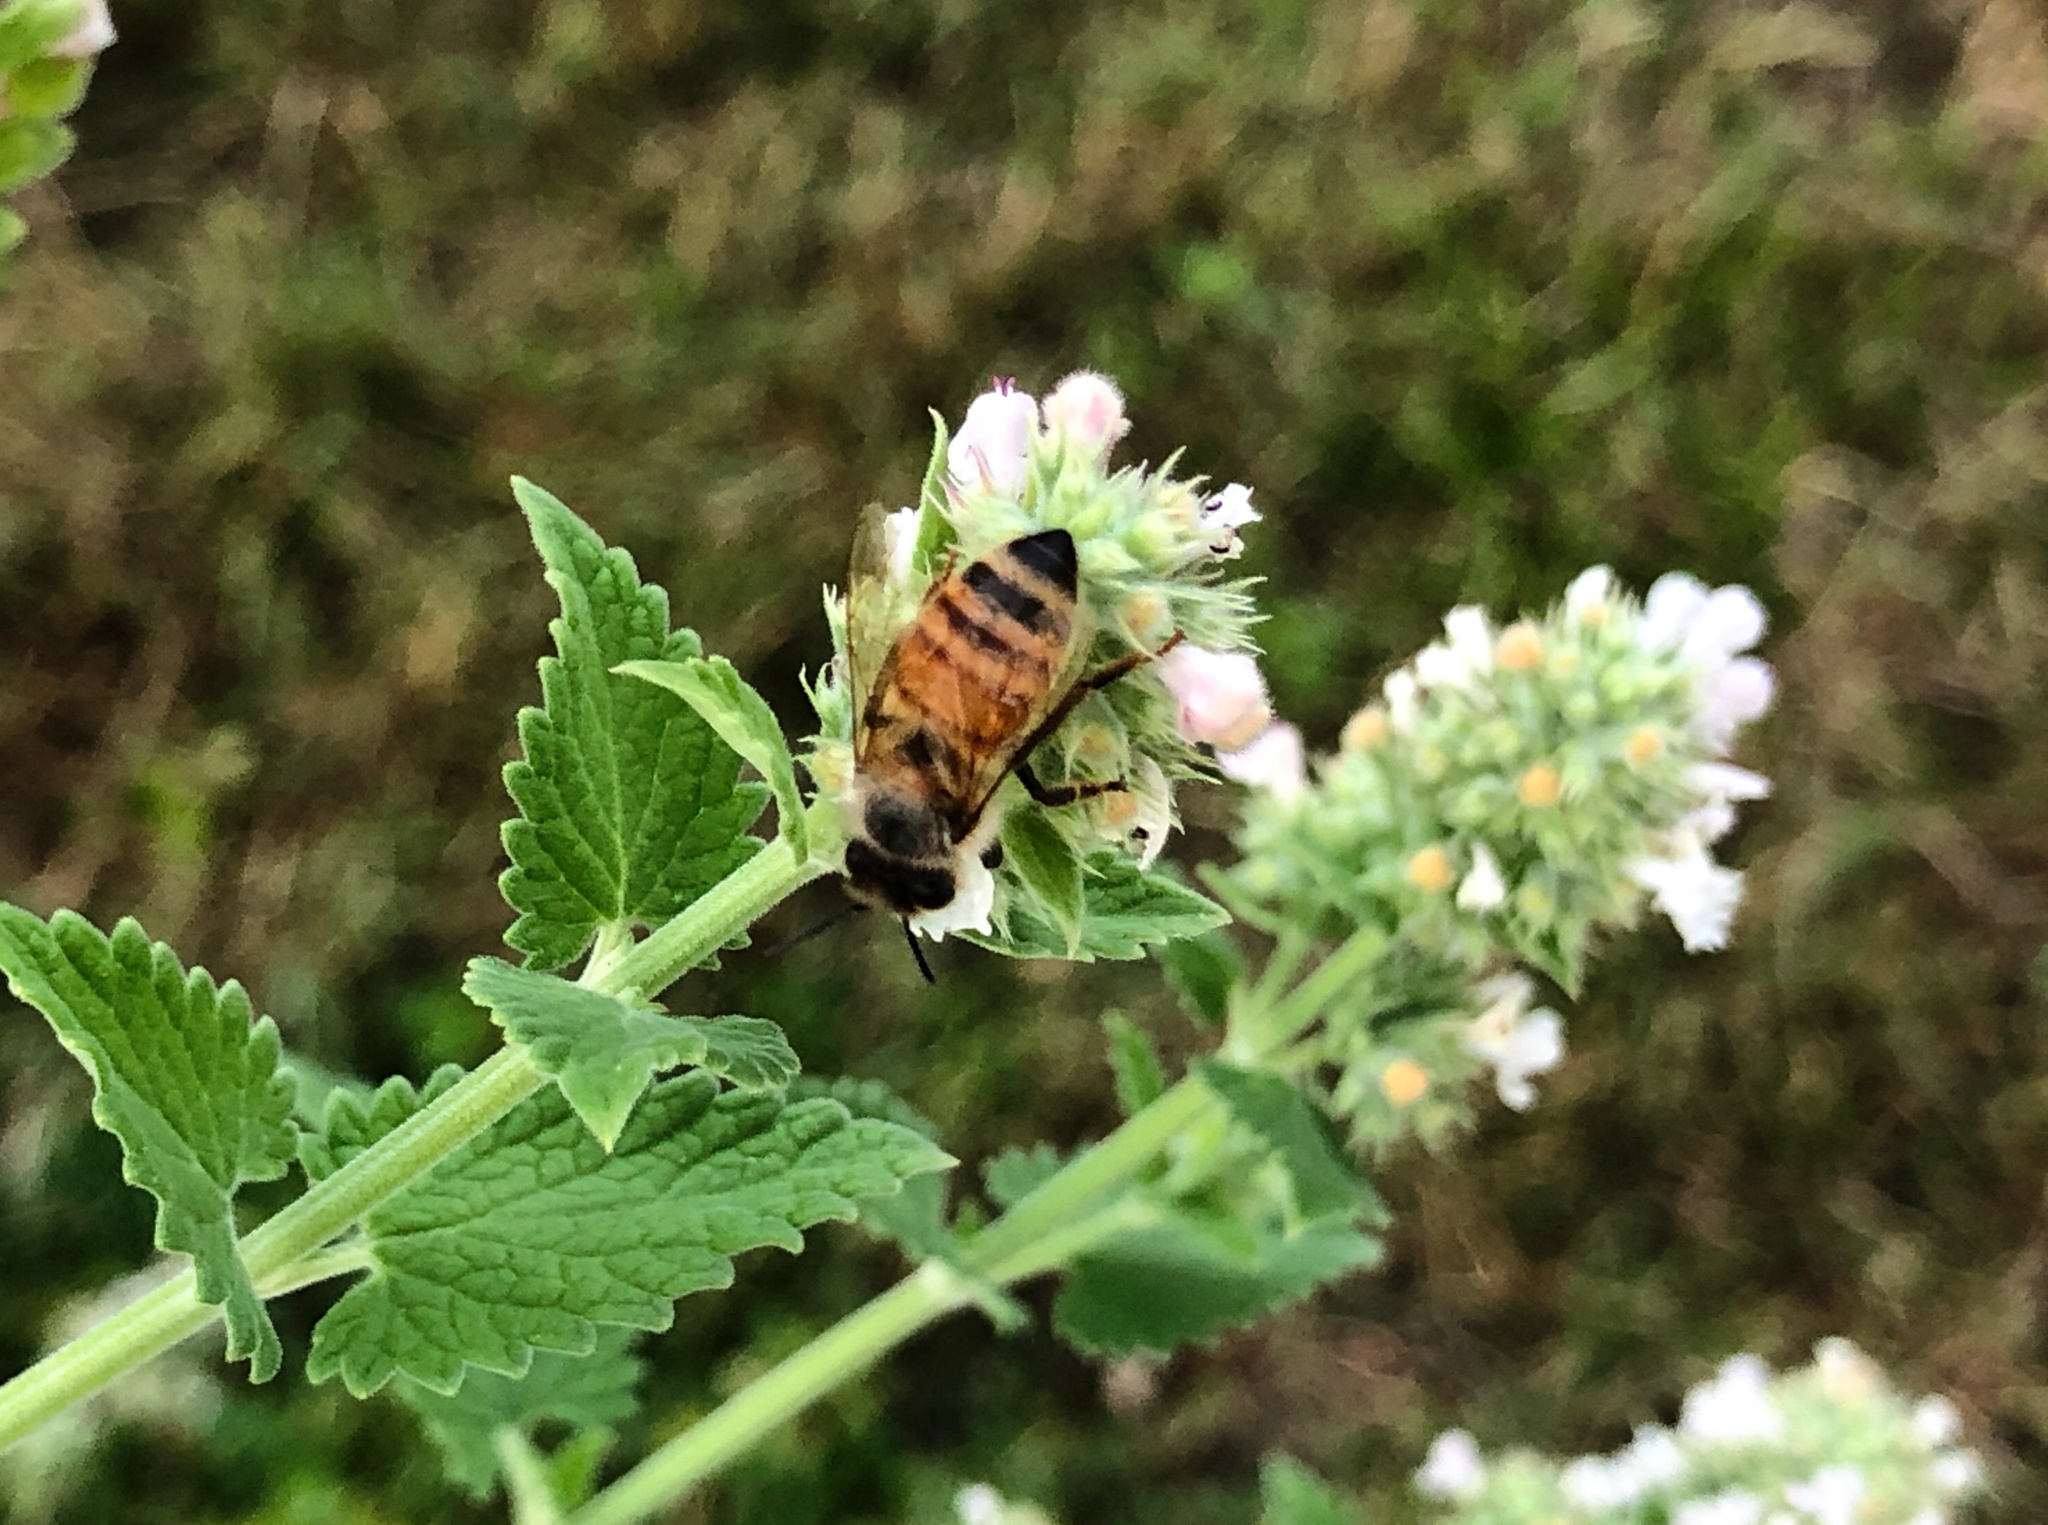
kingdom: Animalia
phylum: Arthropoda
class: Insecta
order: Hymenoptera
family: Apidae
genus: Apis
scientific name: Apis mellifera
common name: Honey bee
